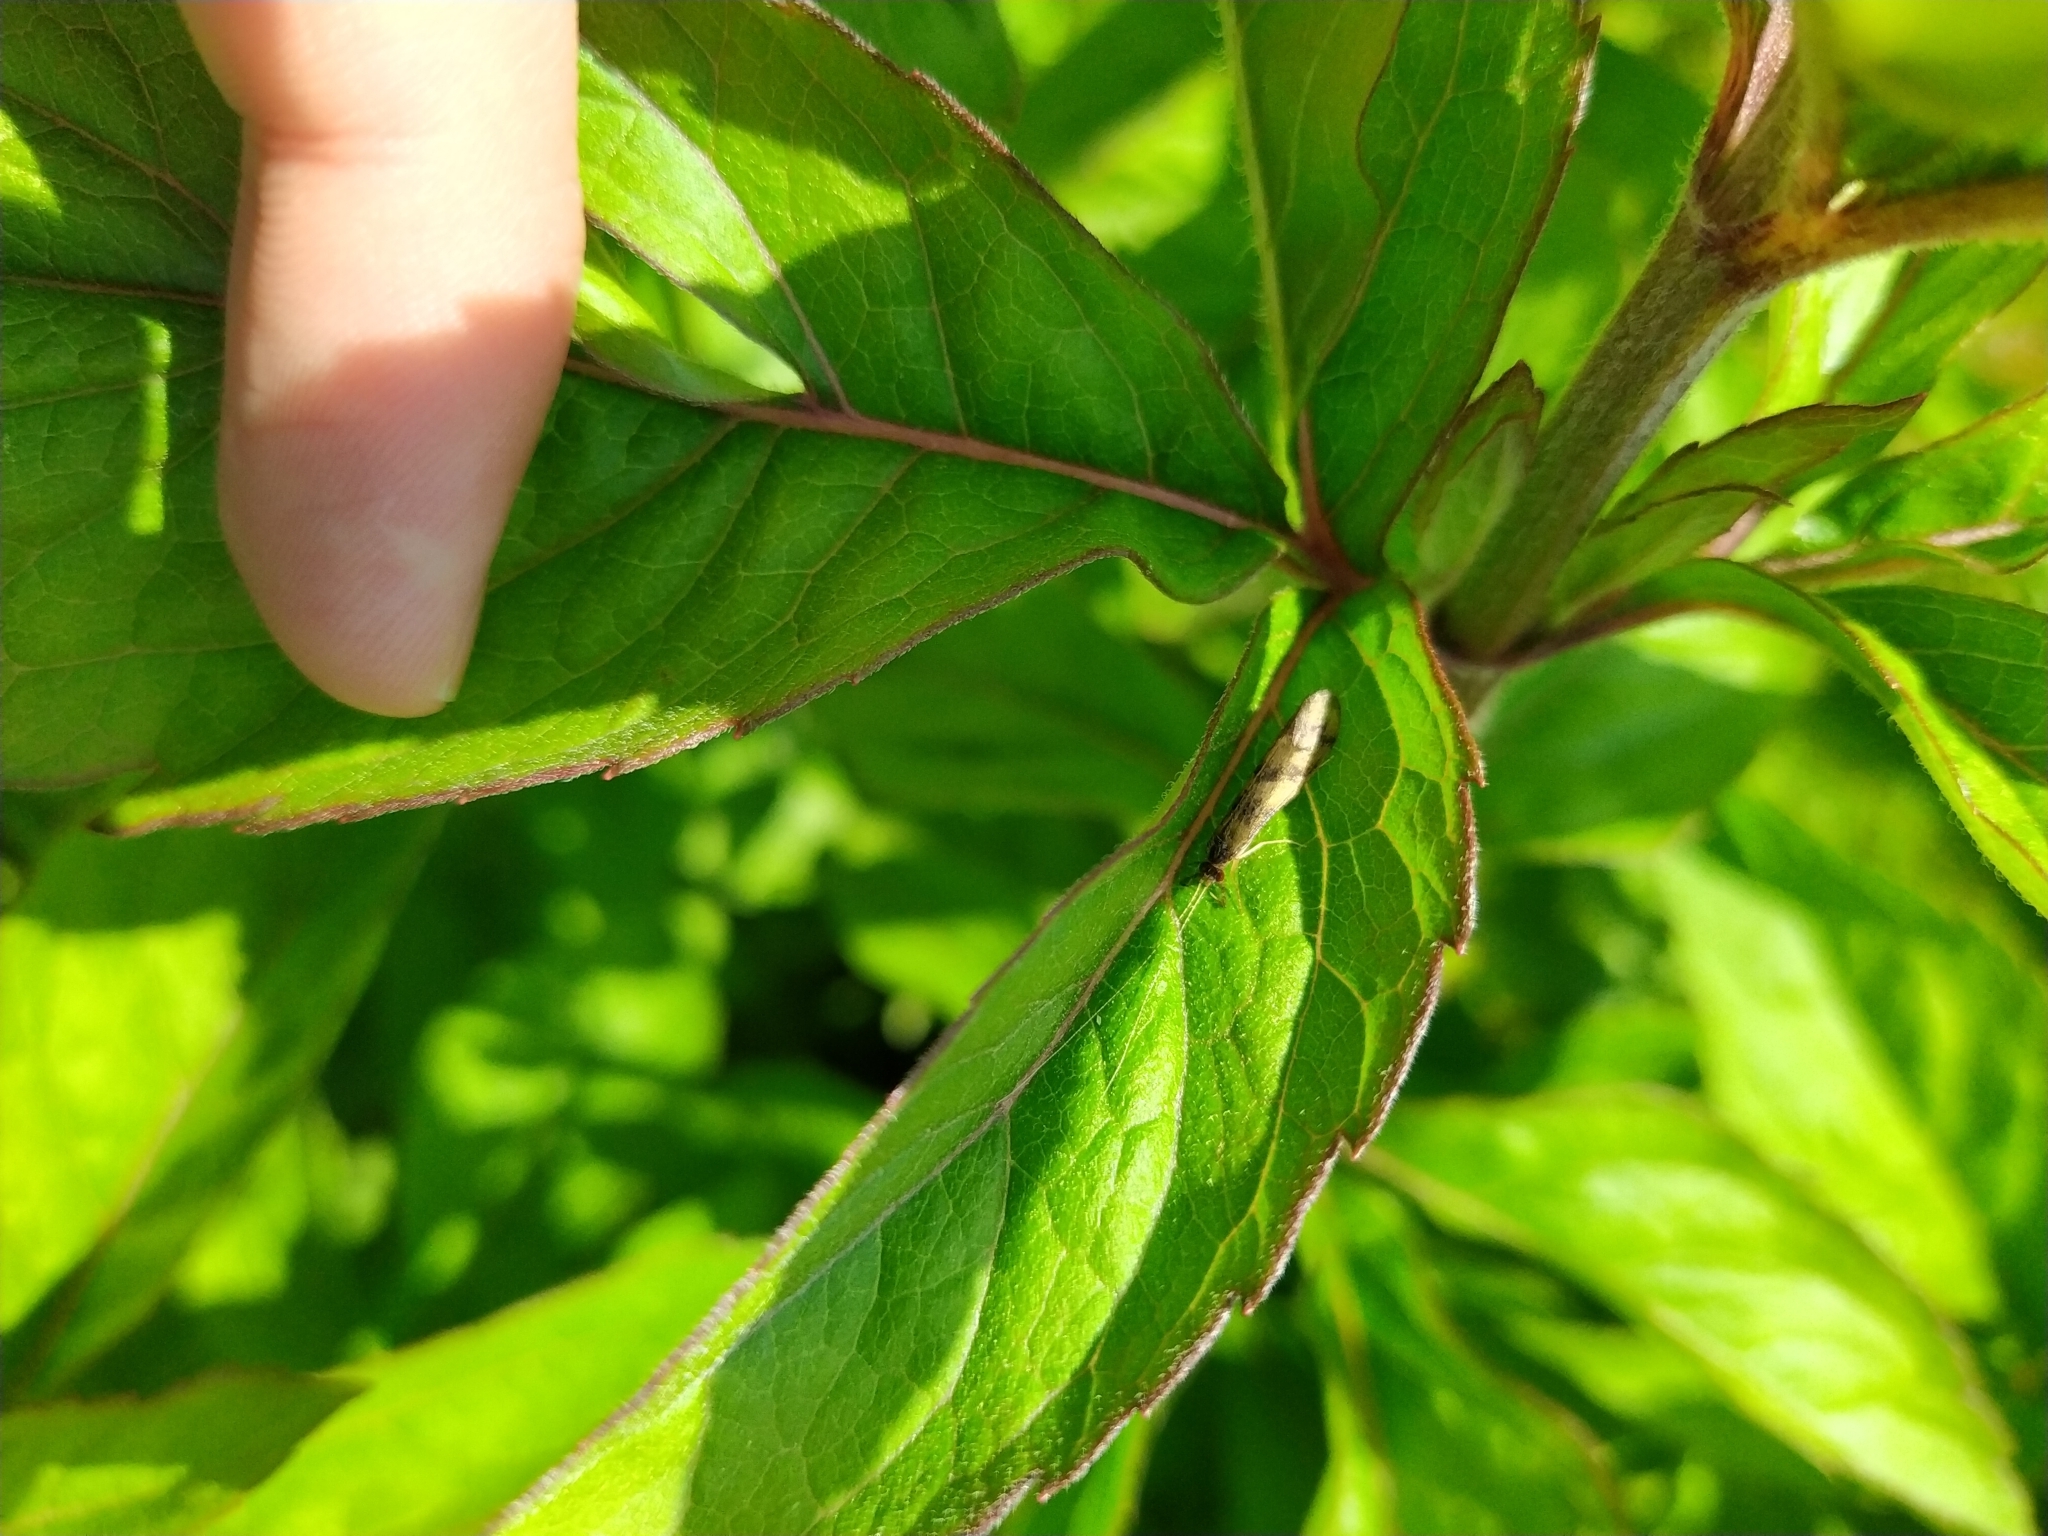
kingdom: Animalia
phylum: Arthropoda
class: Insecta
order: Trichoptera
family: Leptoceridae
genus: Mystacides
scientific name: Mystacides longicornis
